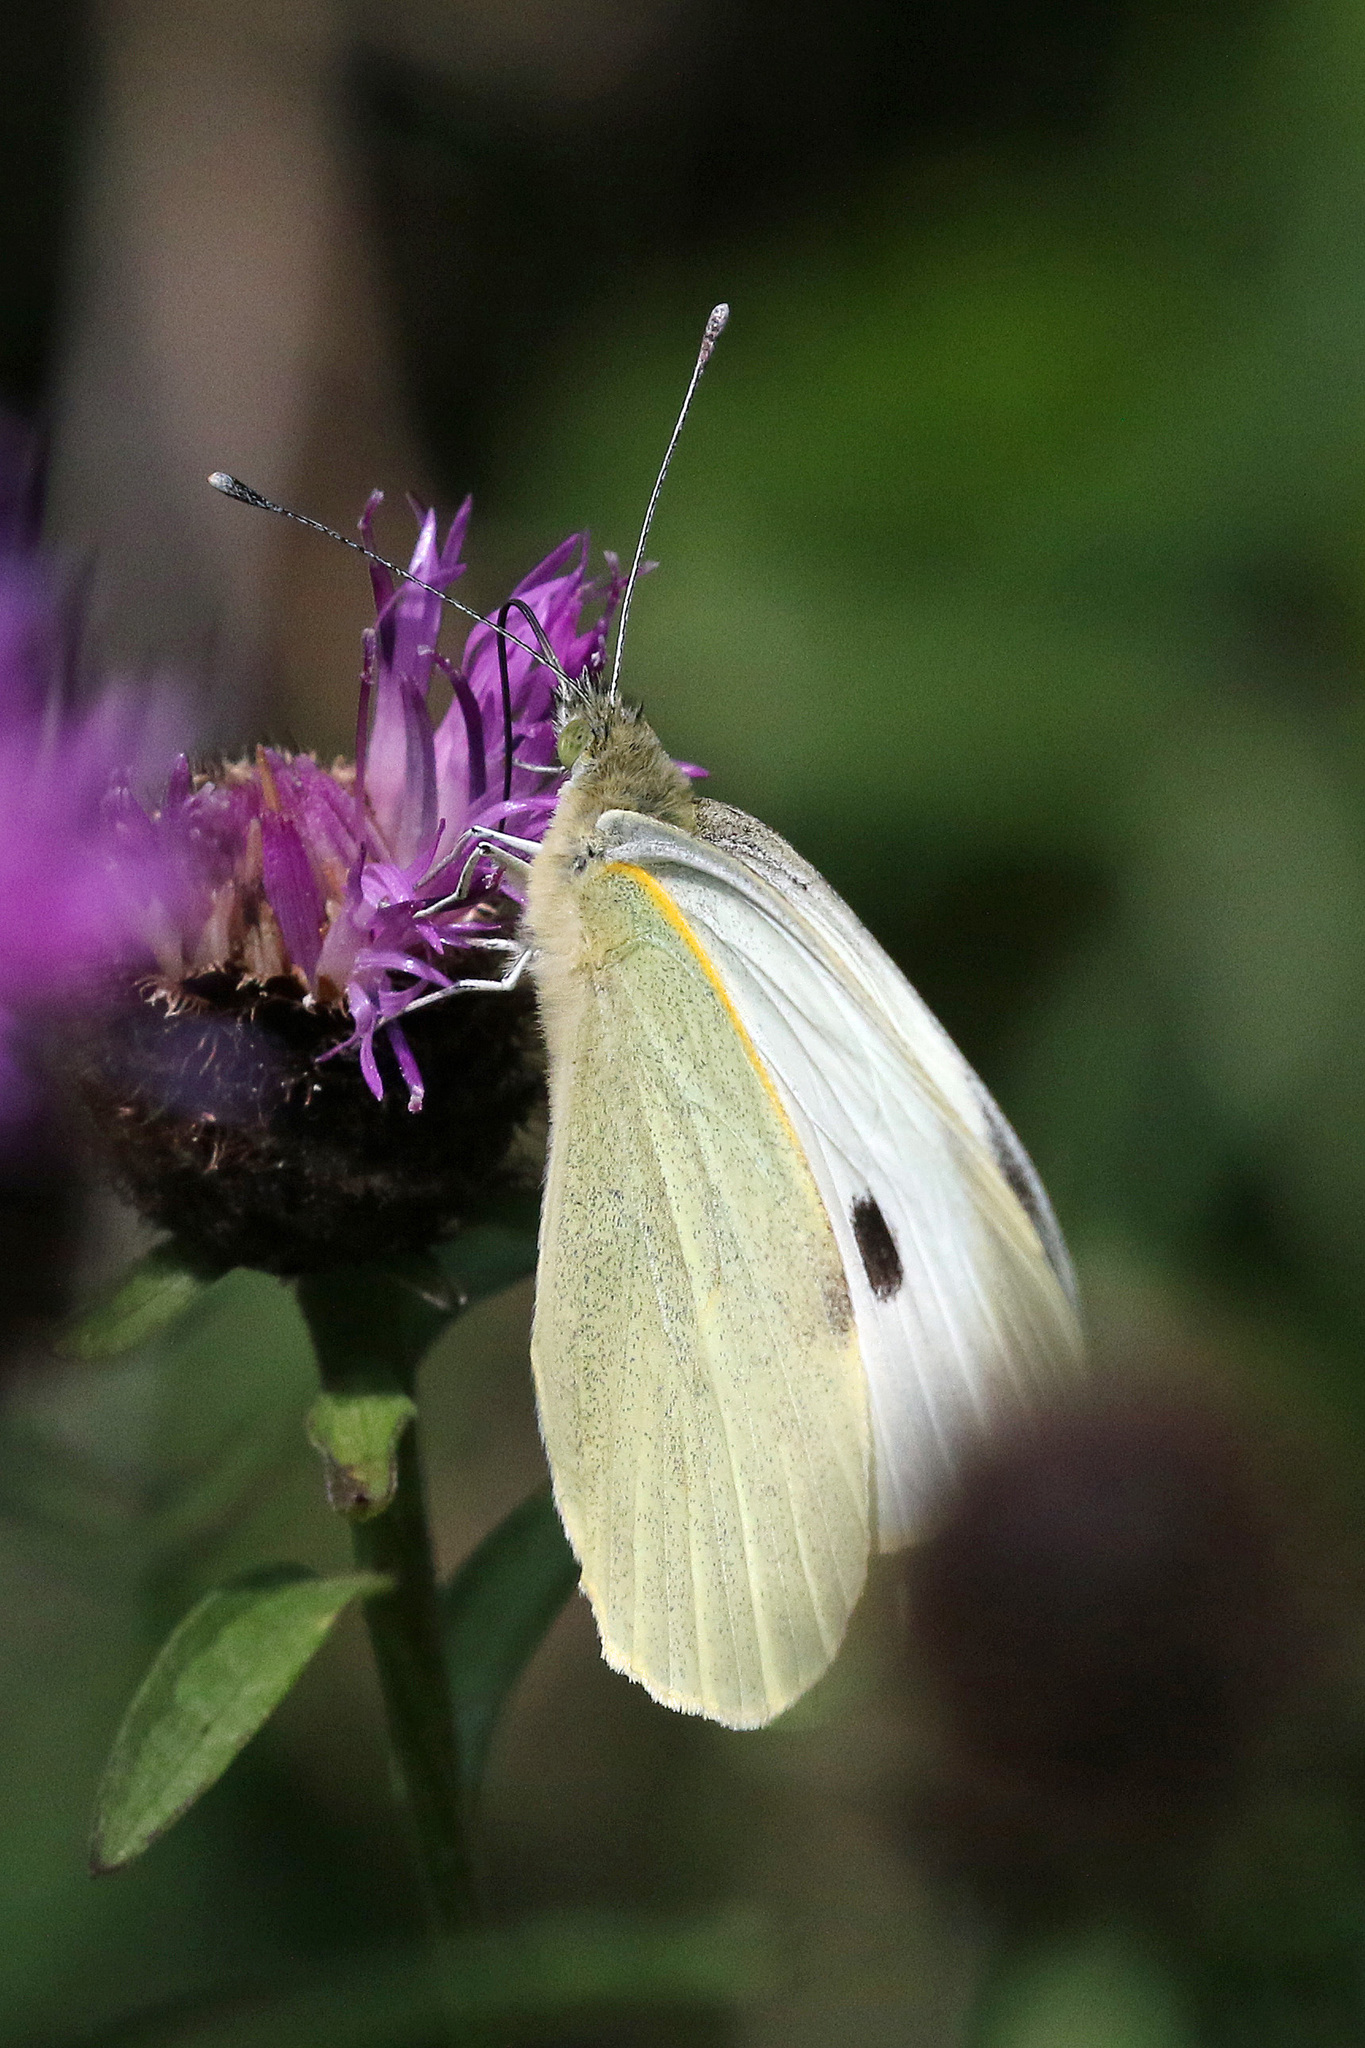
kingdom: Animalia
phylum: Arthropoda
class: Insecta
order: Lepidoptera
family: Pieridae
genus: Pieris
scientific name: Pieris brassicae
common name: Large white
